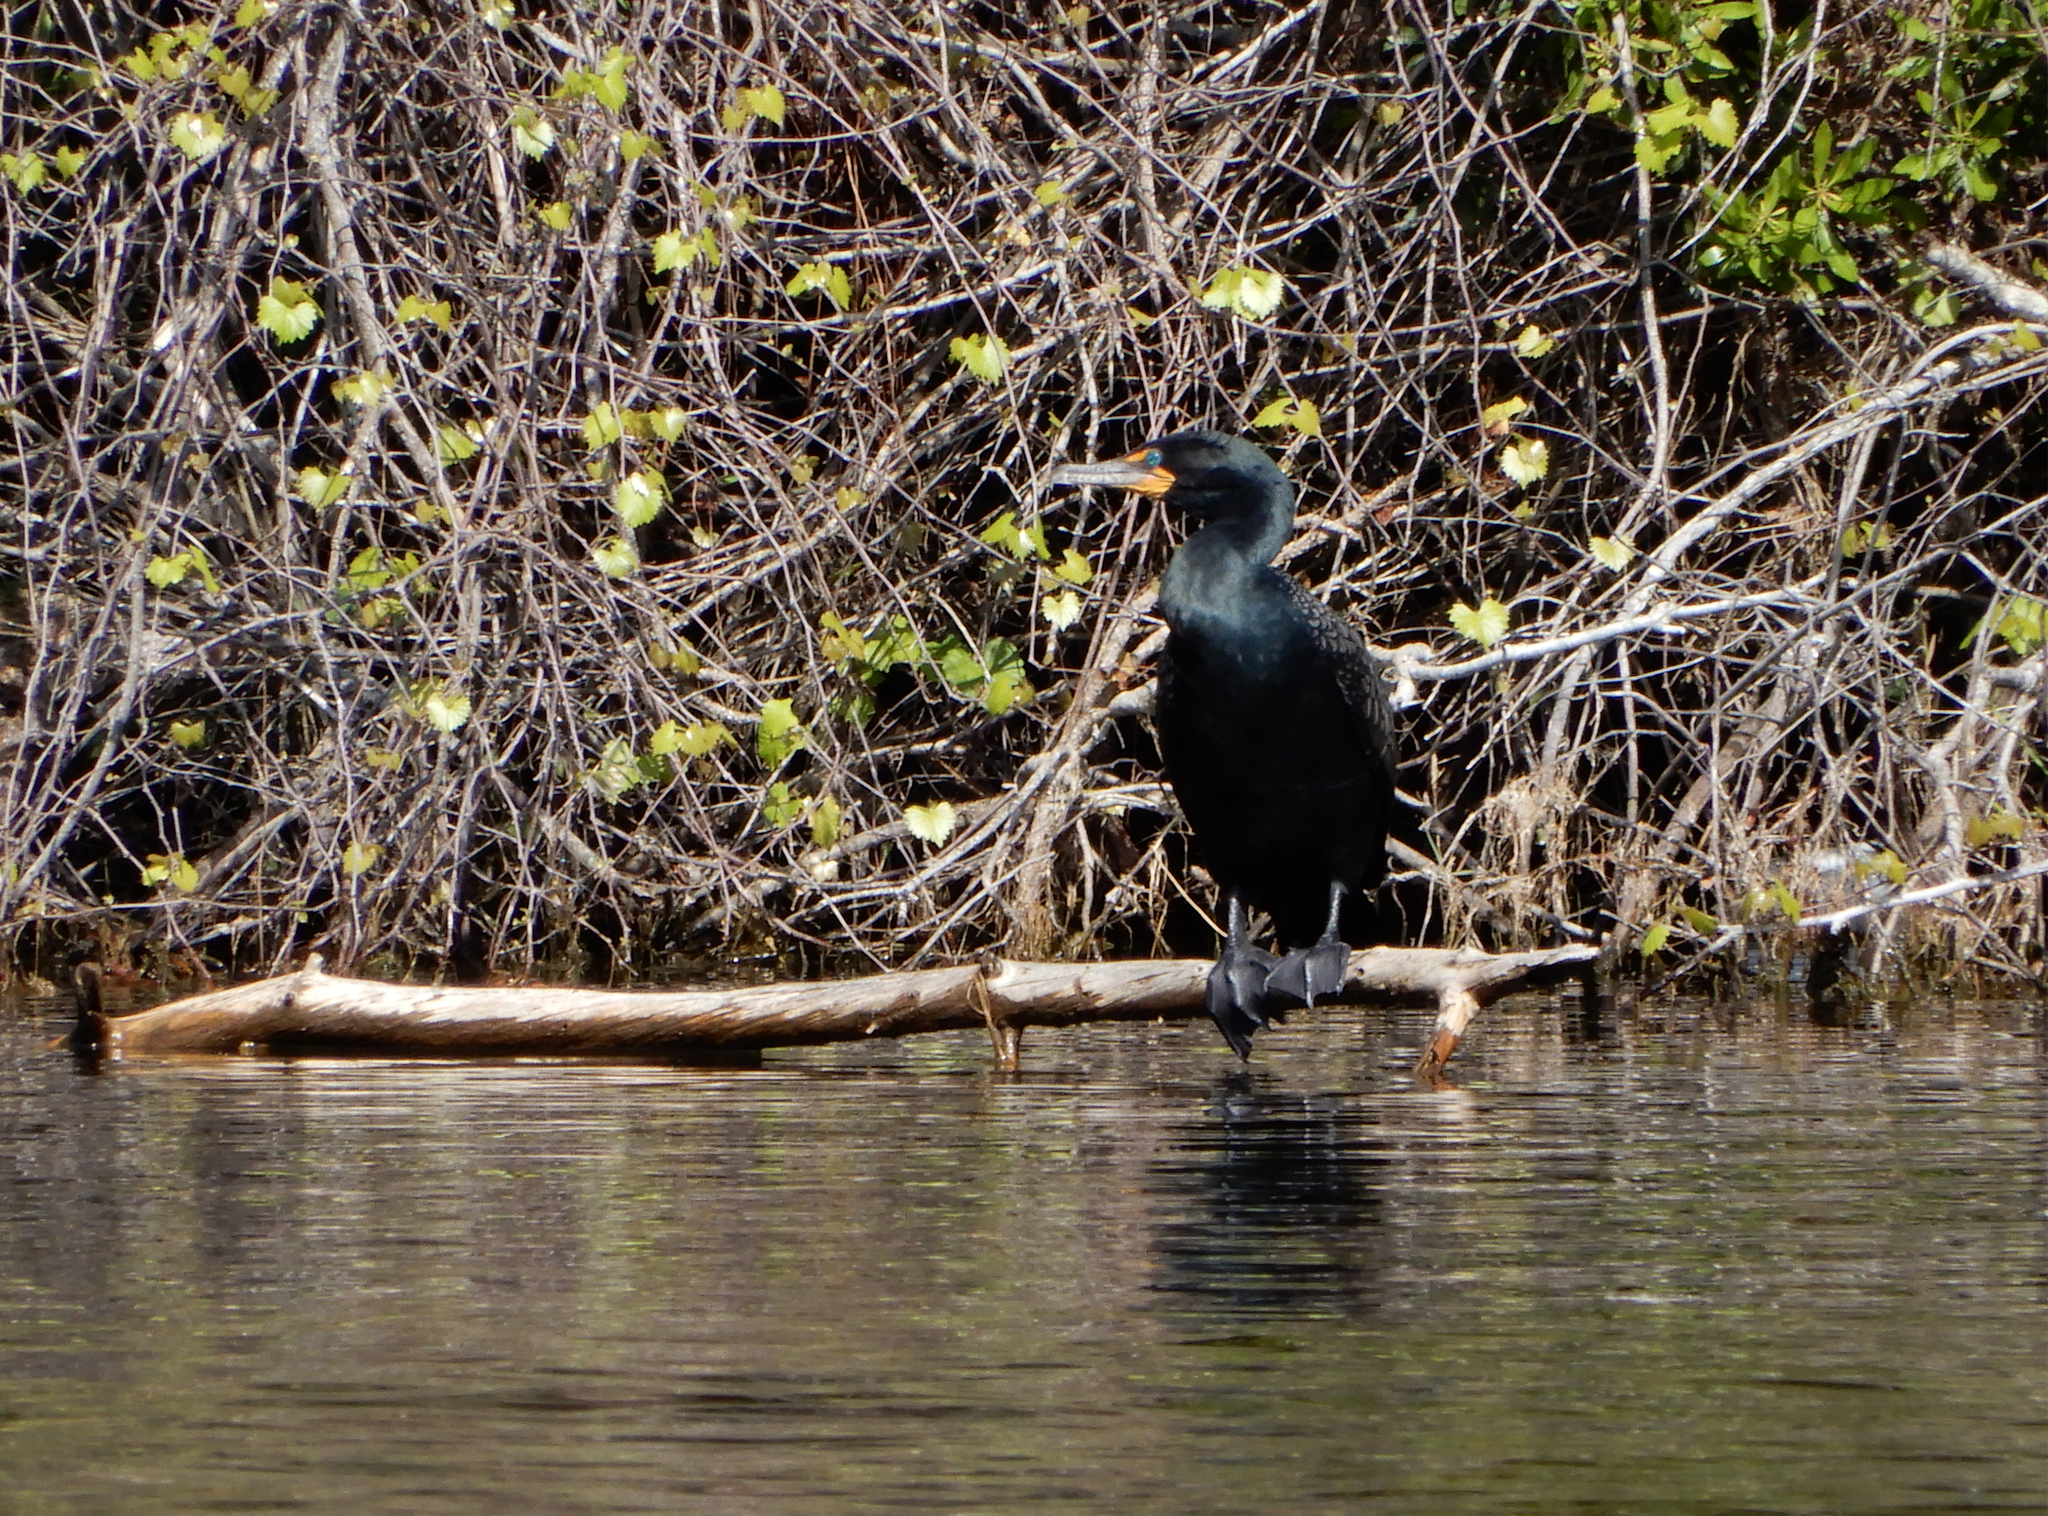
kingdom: Animalia
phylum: Chordata
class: Aves
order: Suliformes
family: Phalacrocoracidae
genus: Phalacrocorax
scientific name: Phalacrocorax auritus
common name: Double-crested cormorant
